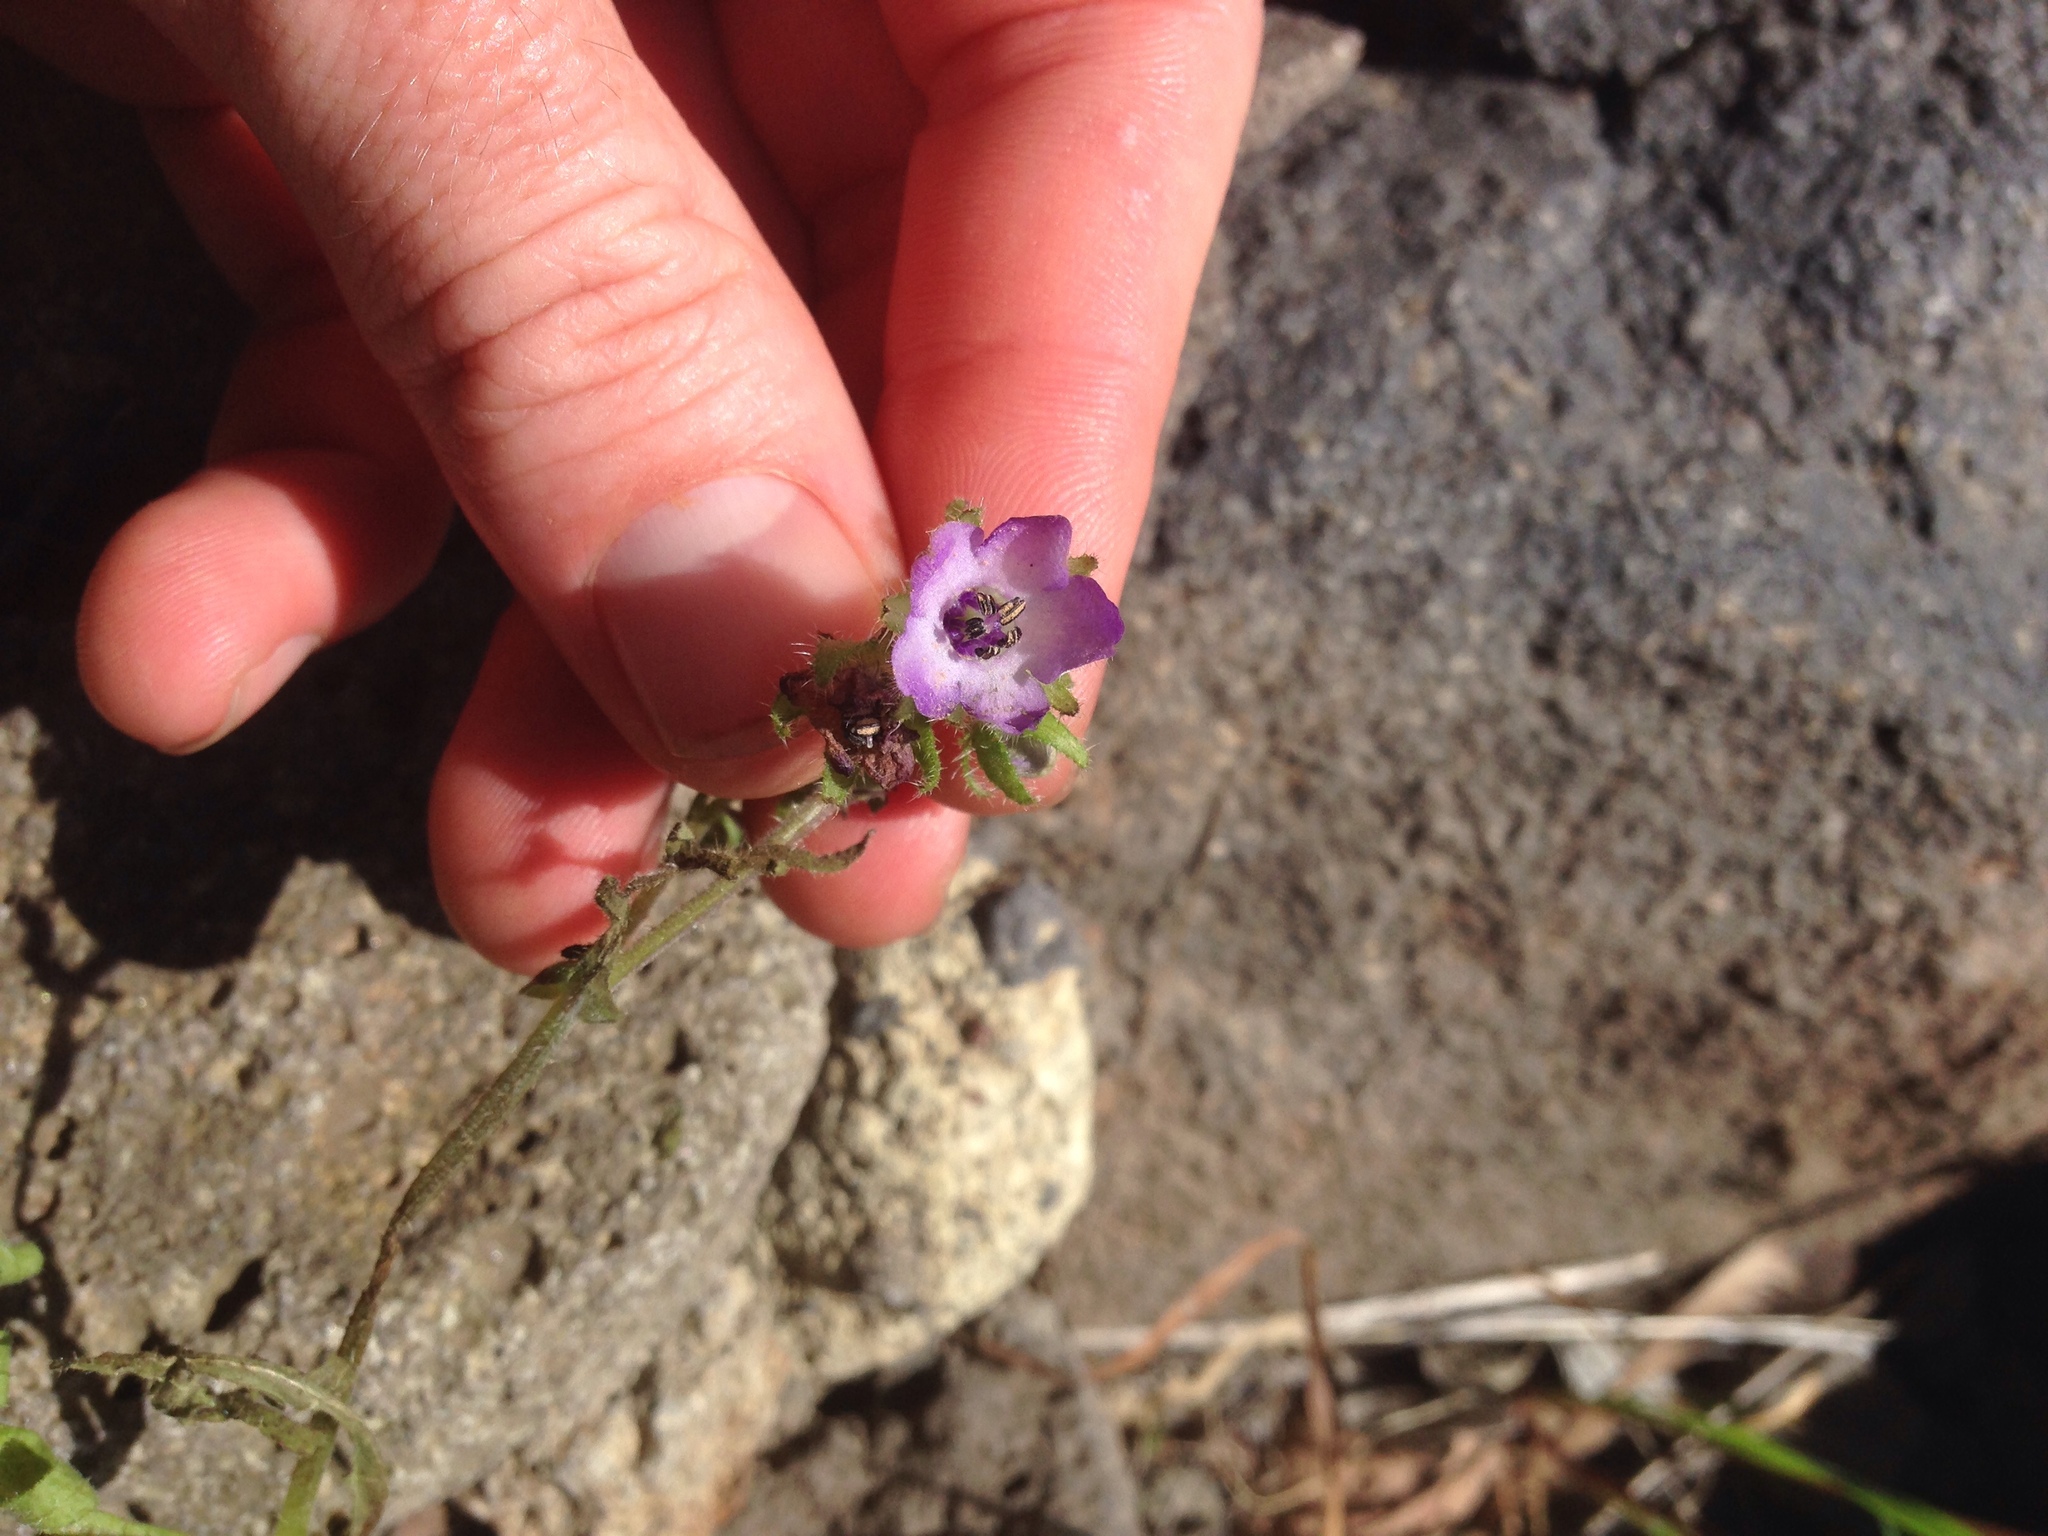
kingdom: Plantae
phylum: Tracheophyta
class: Magnoliopsida
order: Boraginales
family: Hydrophyllaceae
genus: Pholistoma
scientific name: Pholistoma auritum
